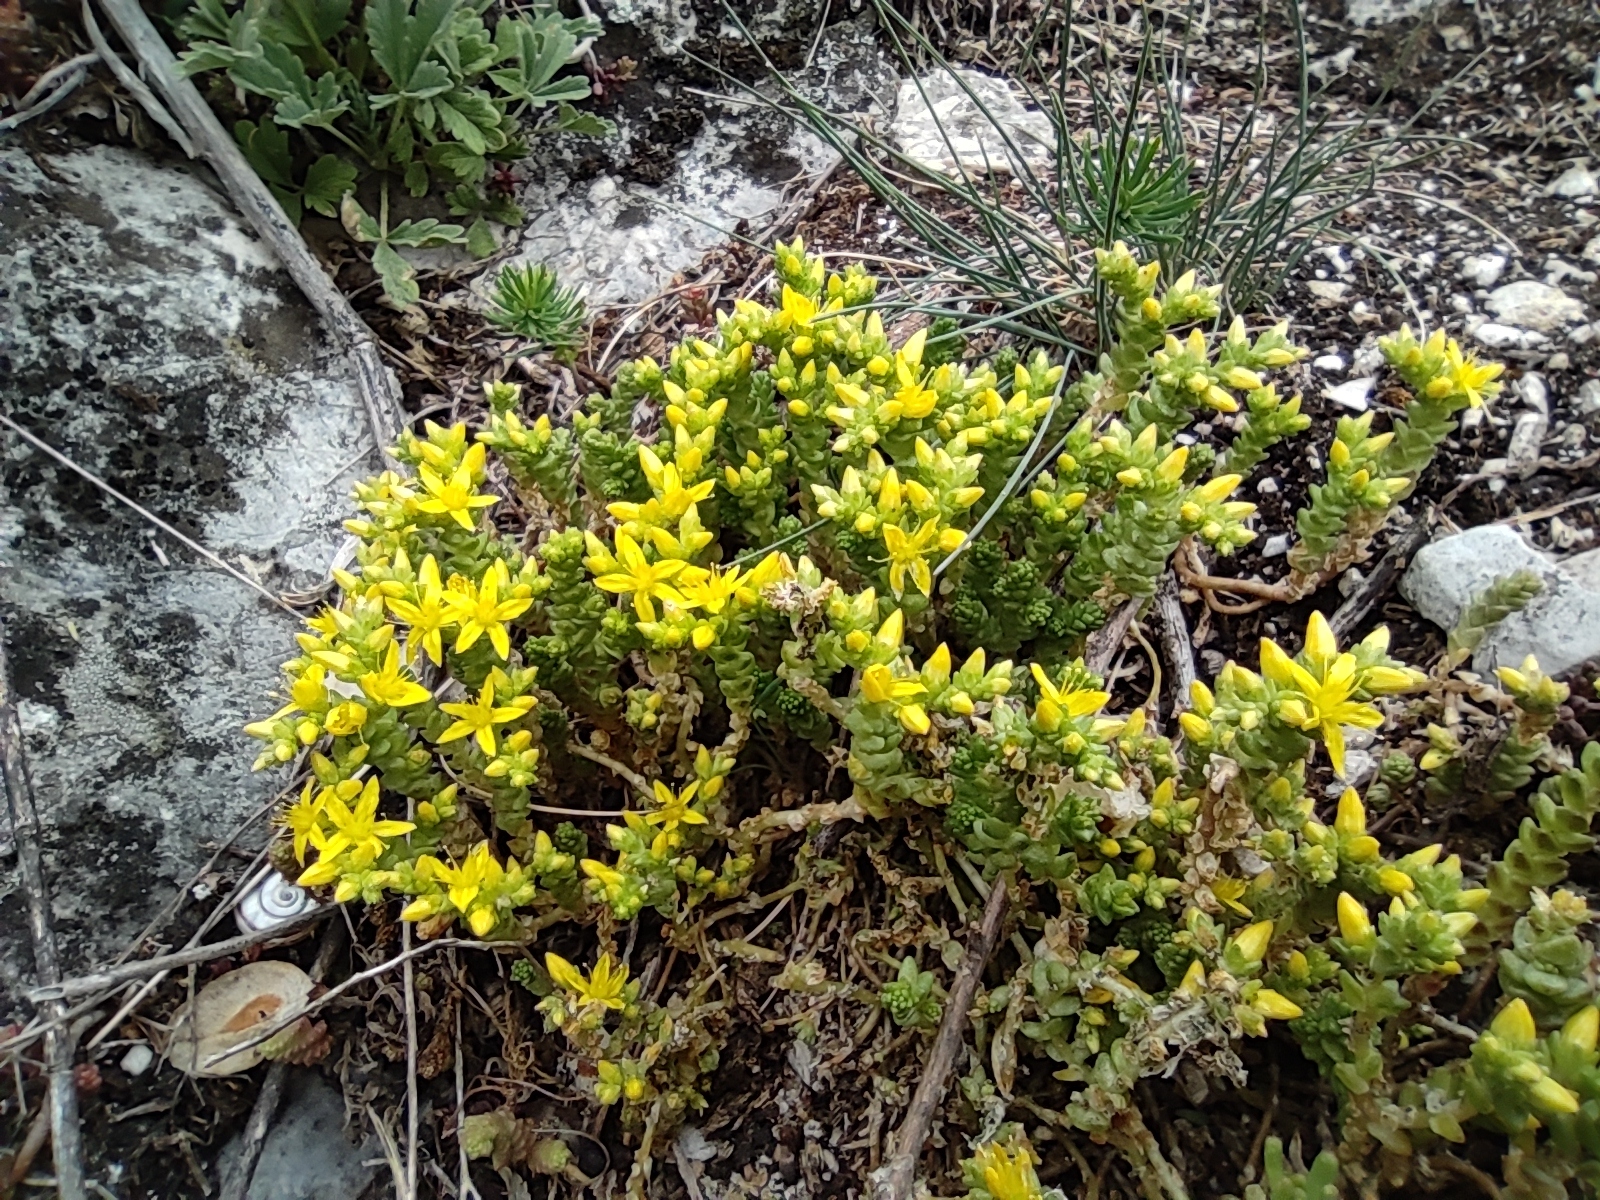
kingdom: Plantae
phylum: Tracheophyta
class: Magnoliopsida
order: Saxifragales
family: Crassulaceae
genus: Sedum
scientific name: Sedum acre
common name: Biting stonecrop
